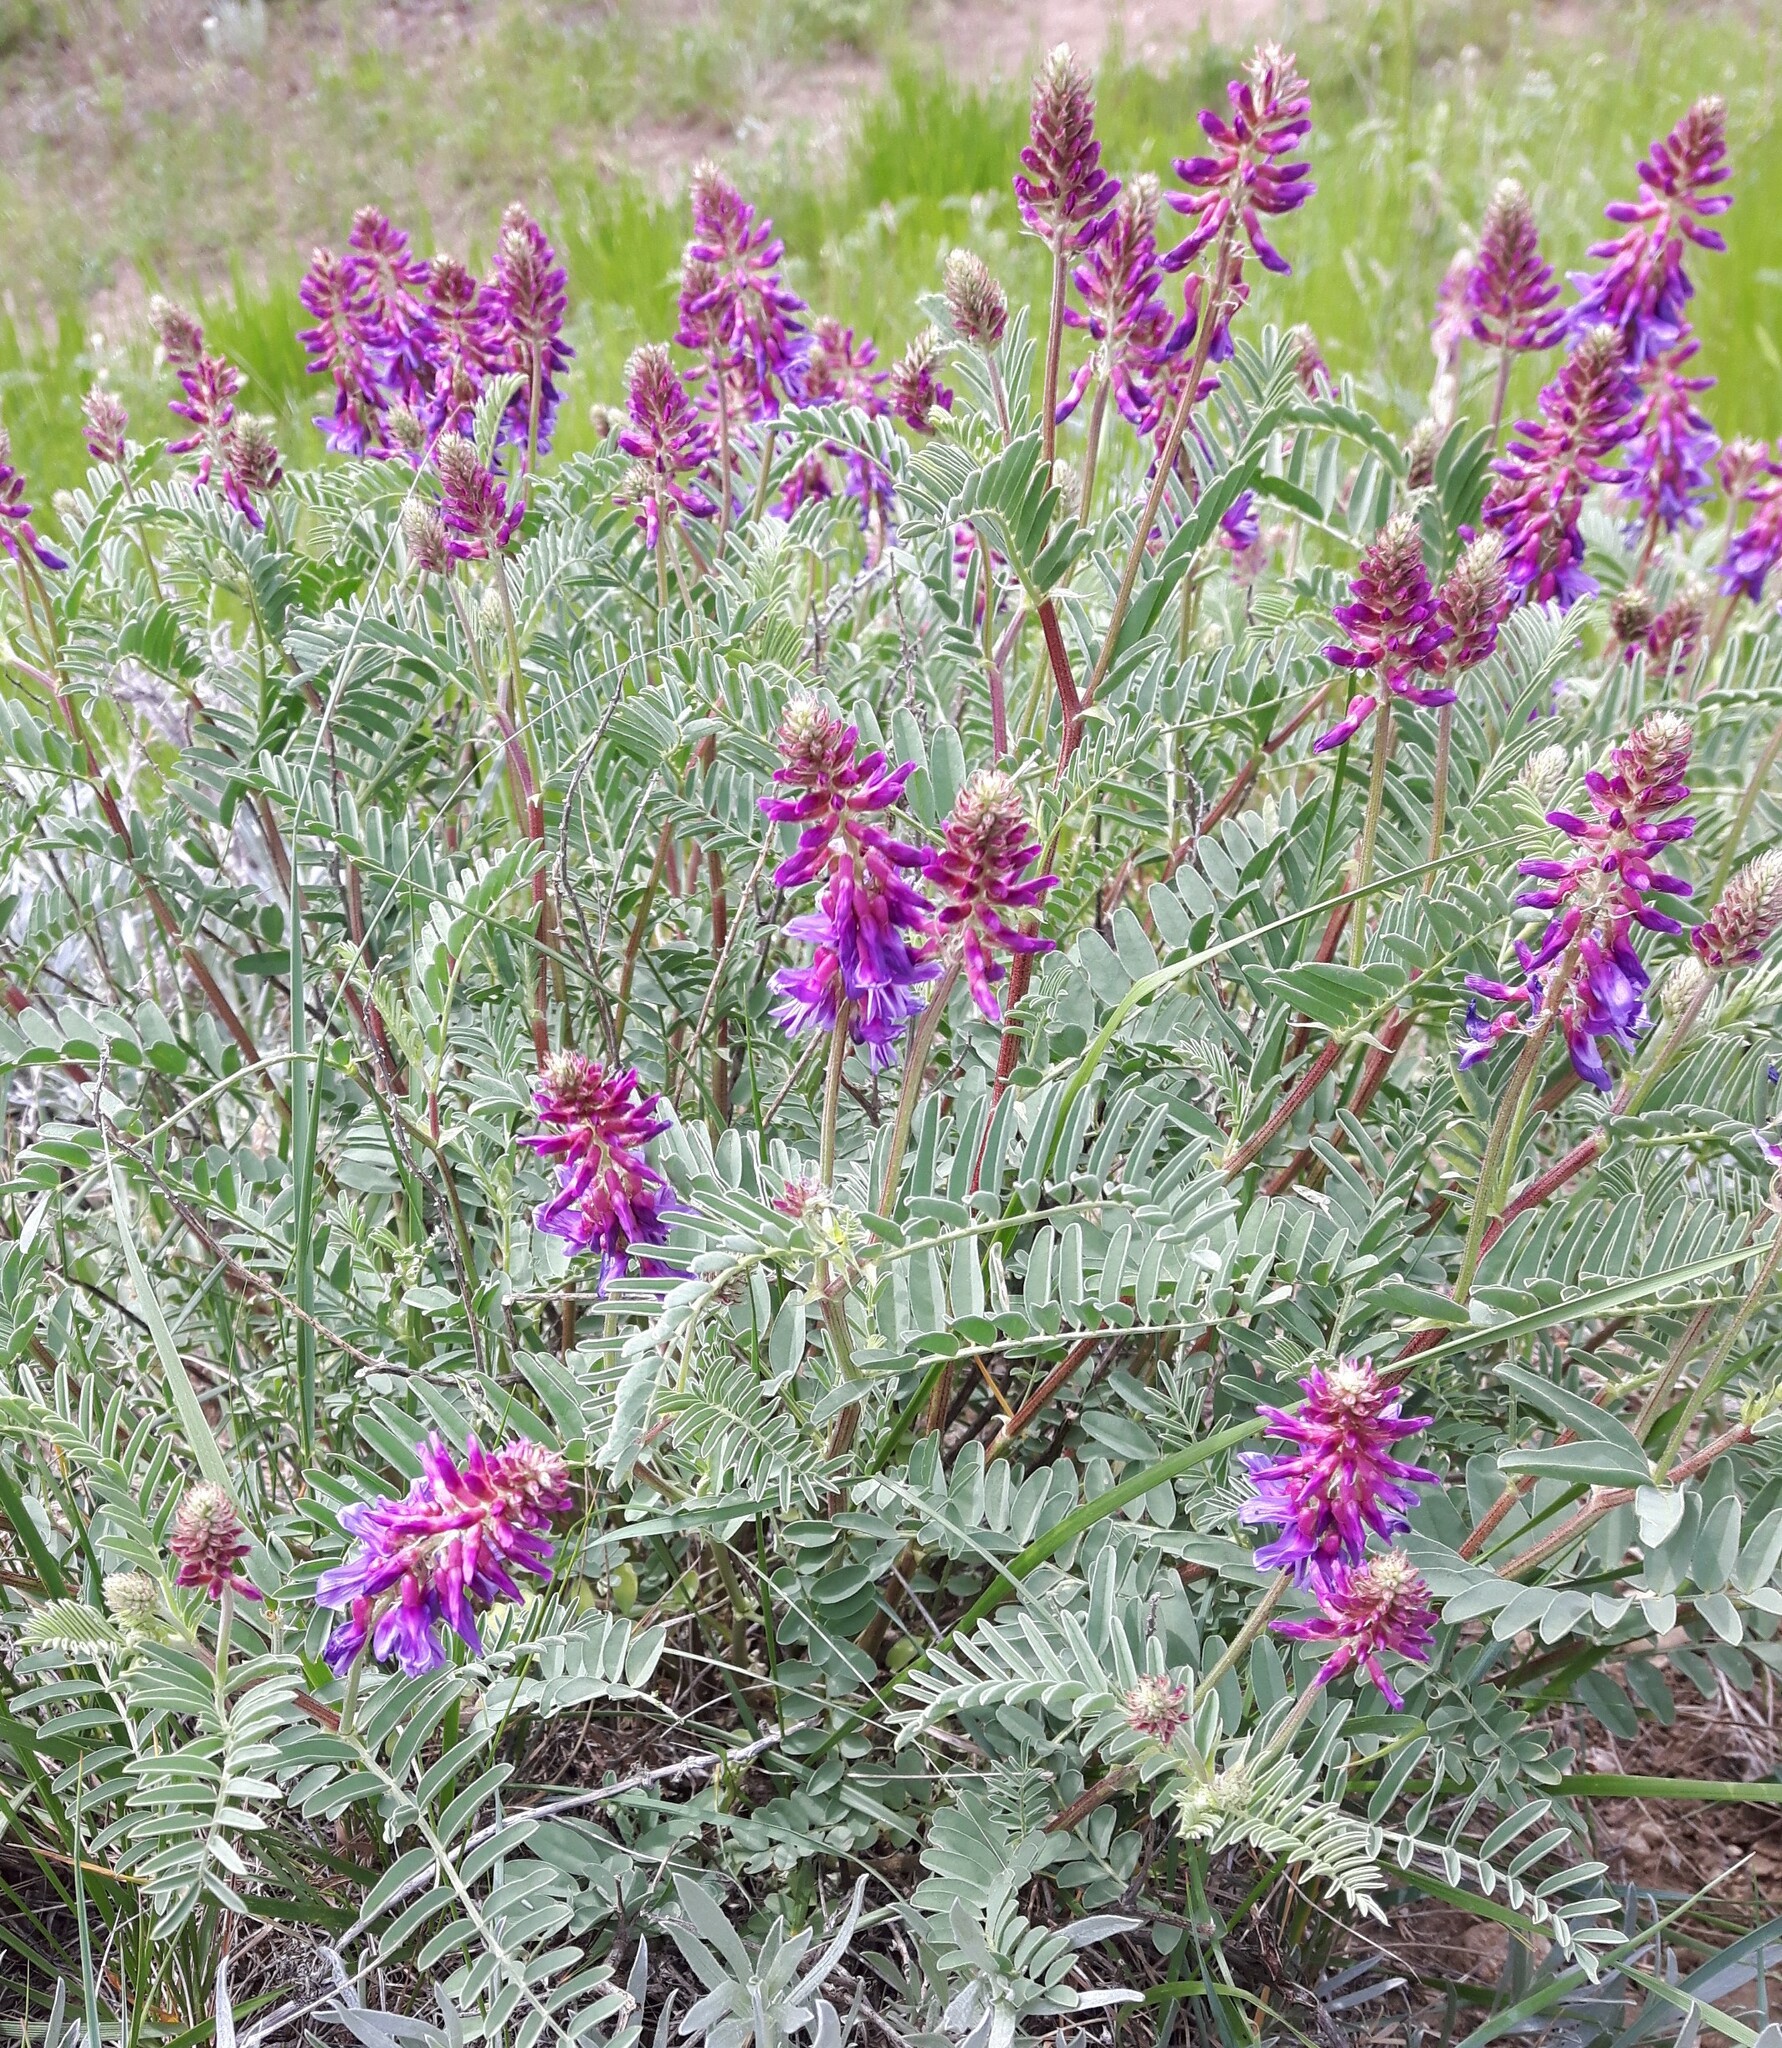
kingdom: Plantae
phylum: Tracheophyta
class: Magnoliopsida
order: Fabales
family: Fabaceae
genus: Astragalus
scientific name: Astragalus bisulcatus
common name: Two-groove milk-vetch
